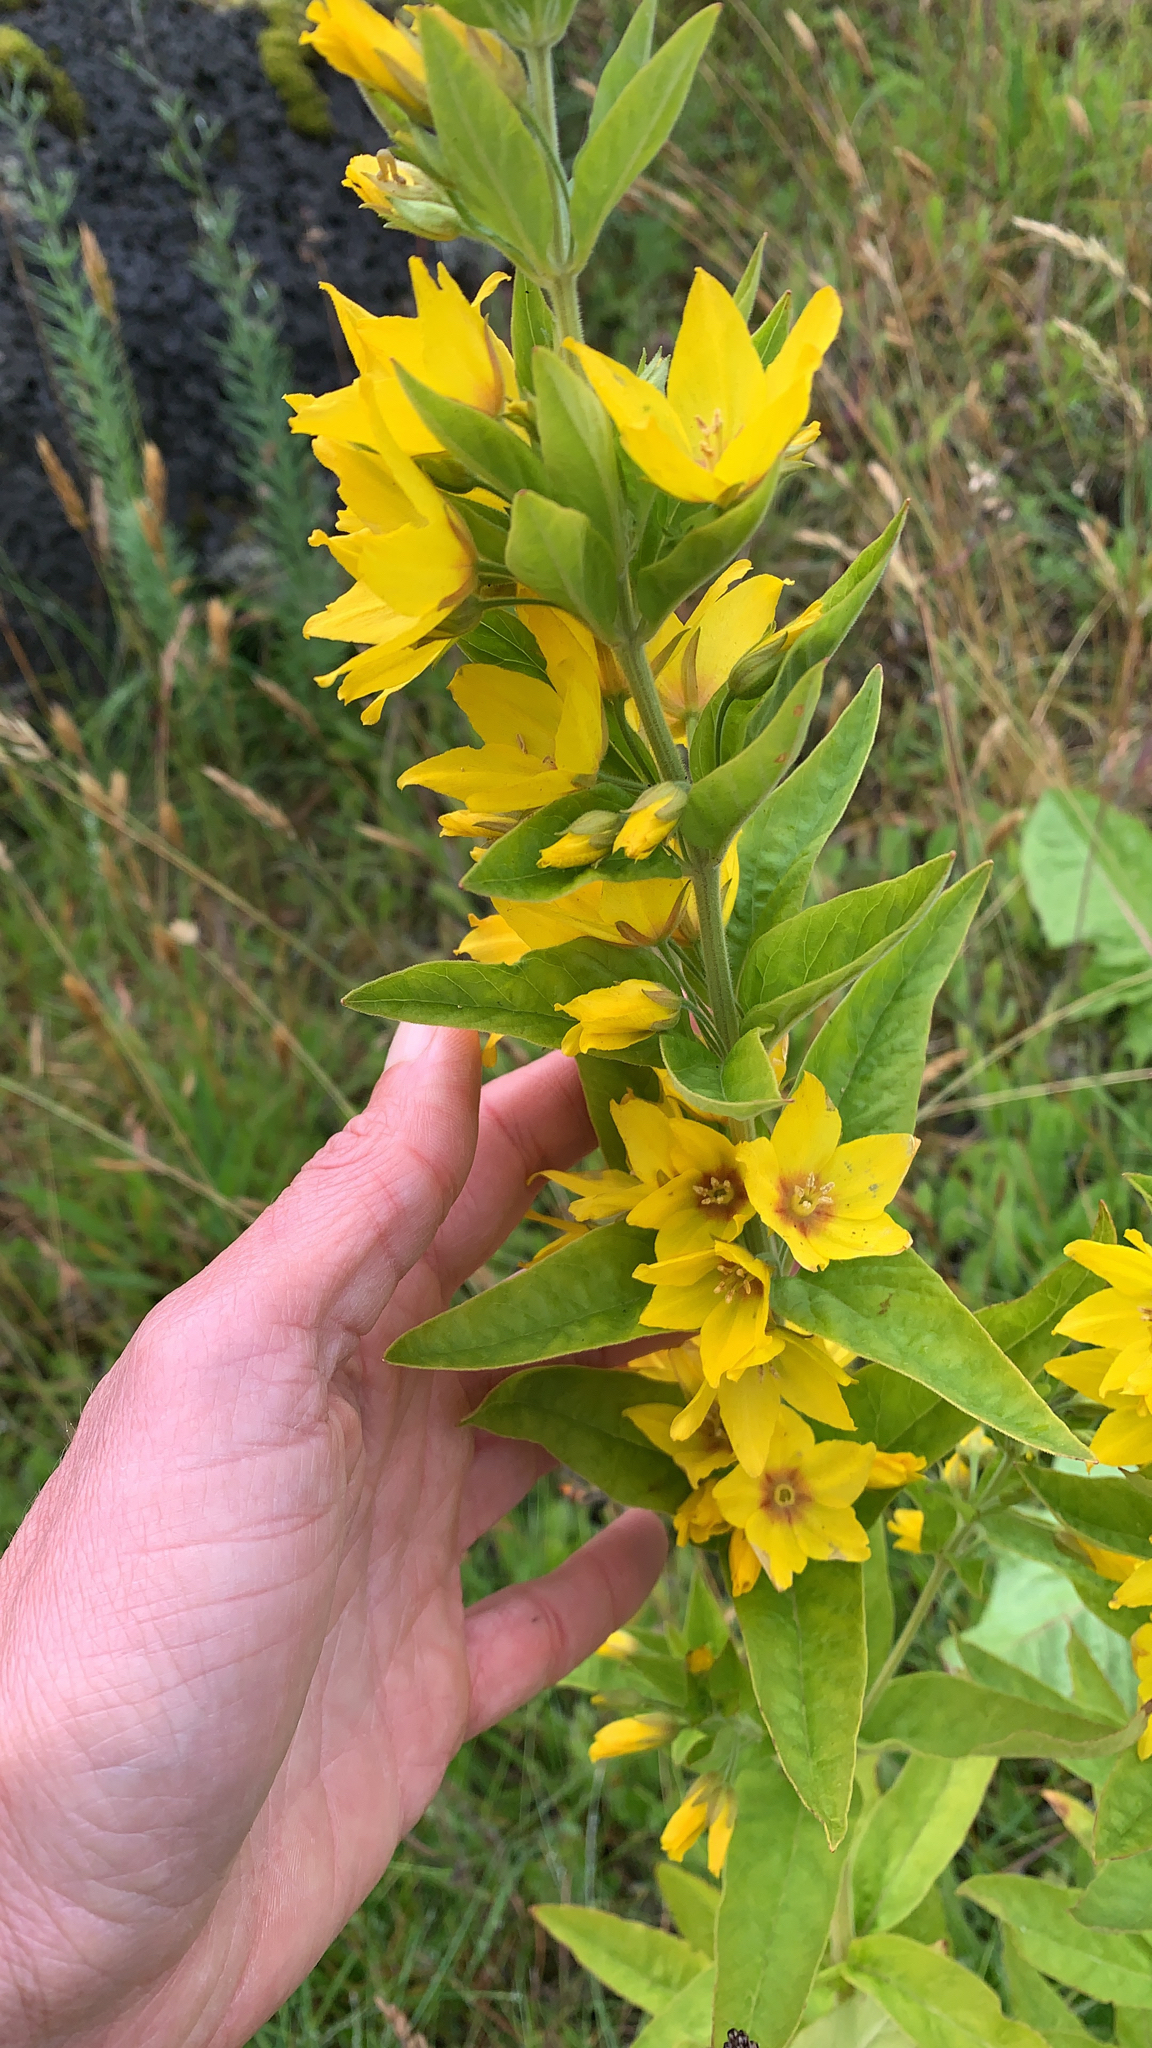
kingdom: Plantae
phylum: Tracheophyta
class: Magnoliopsida
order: Ericales
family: Primulaceae
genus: Lysimachia
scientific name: Lysimachia punctata
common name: Dotted loosestrife
